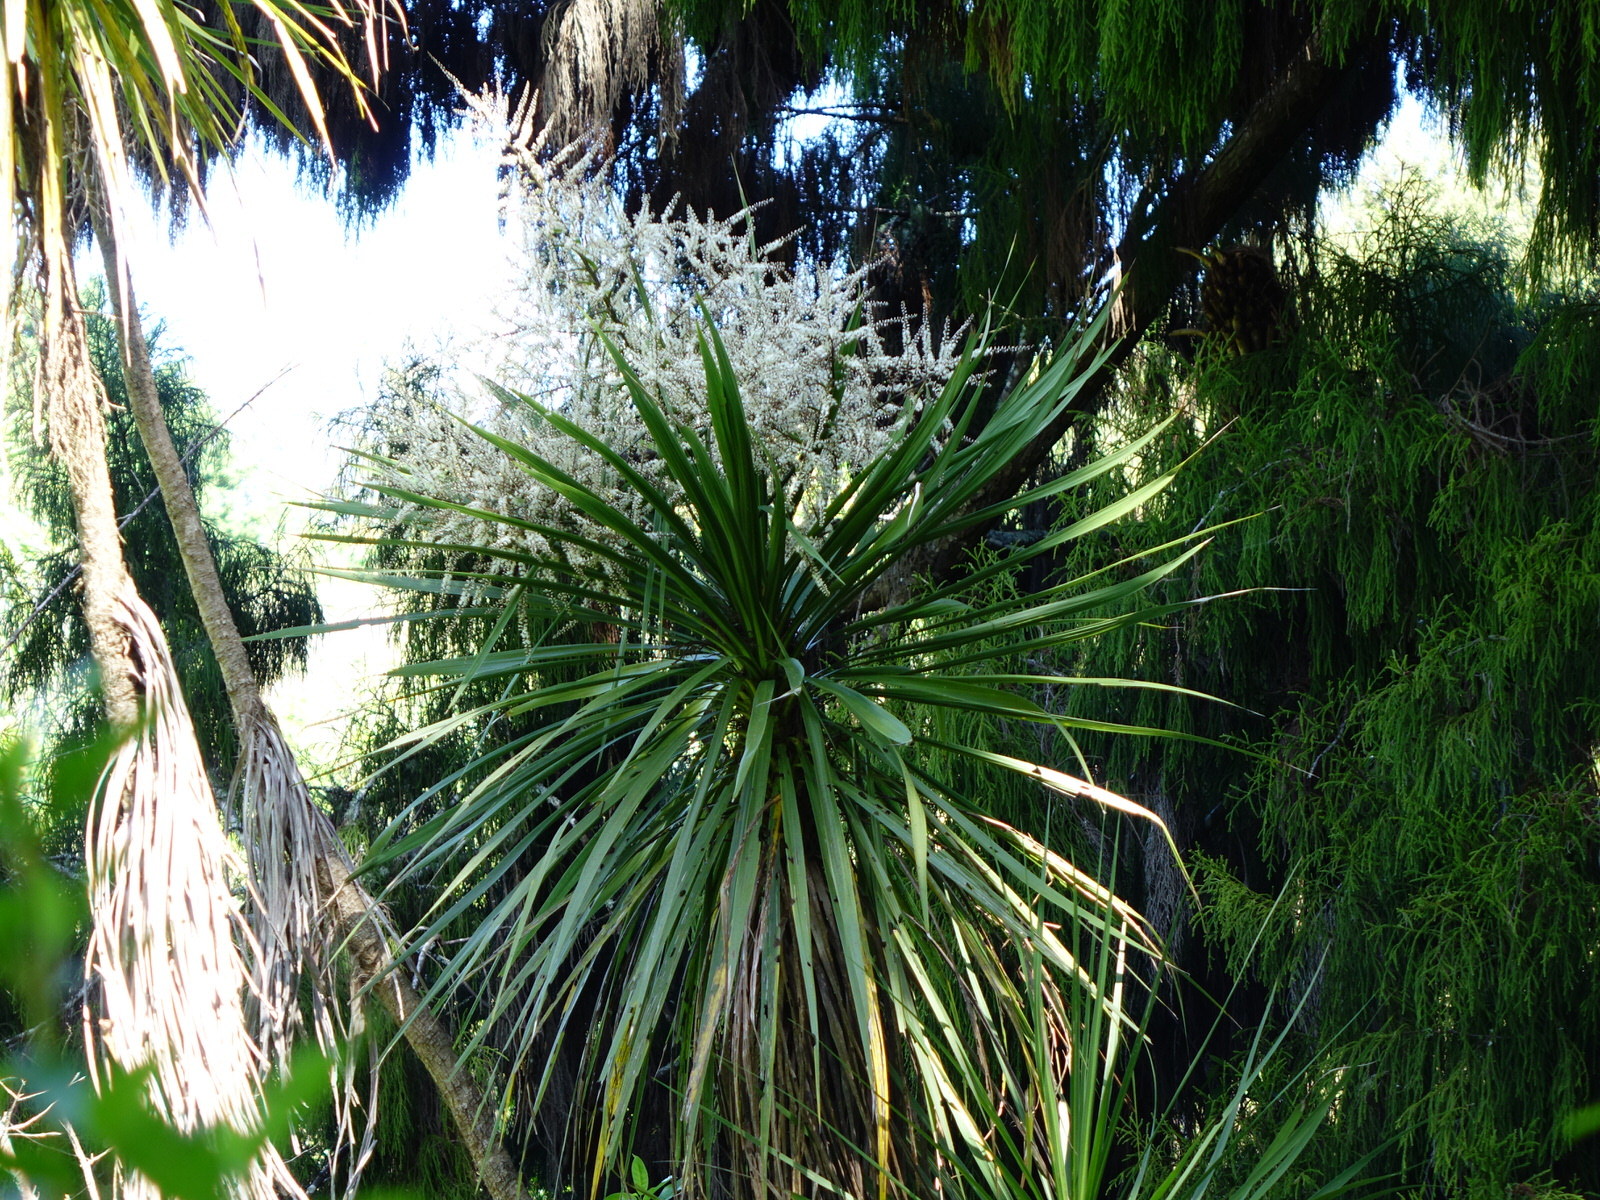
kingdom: Plantae
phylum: Tracheophyta
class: Liliopsida
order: Asparagales
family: Asparagaceae
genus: Cordyline
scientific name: Cordyline australis
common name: Cabbage-palm
